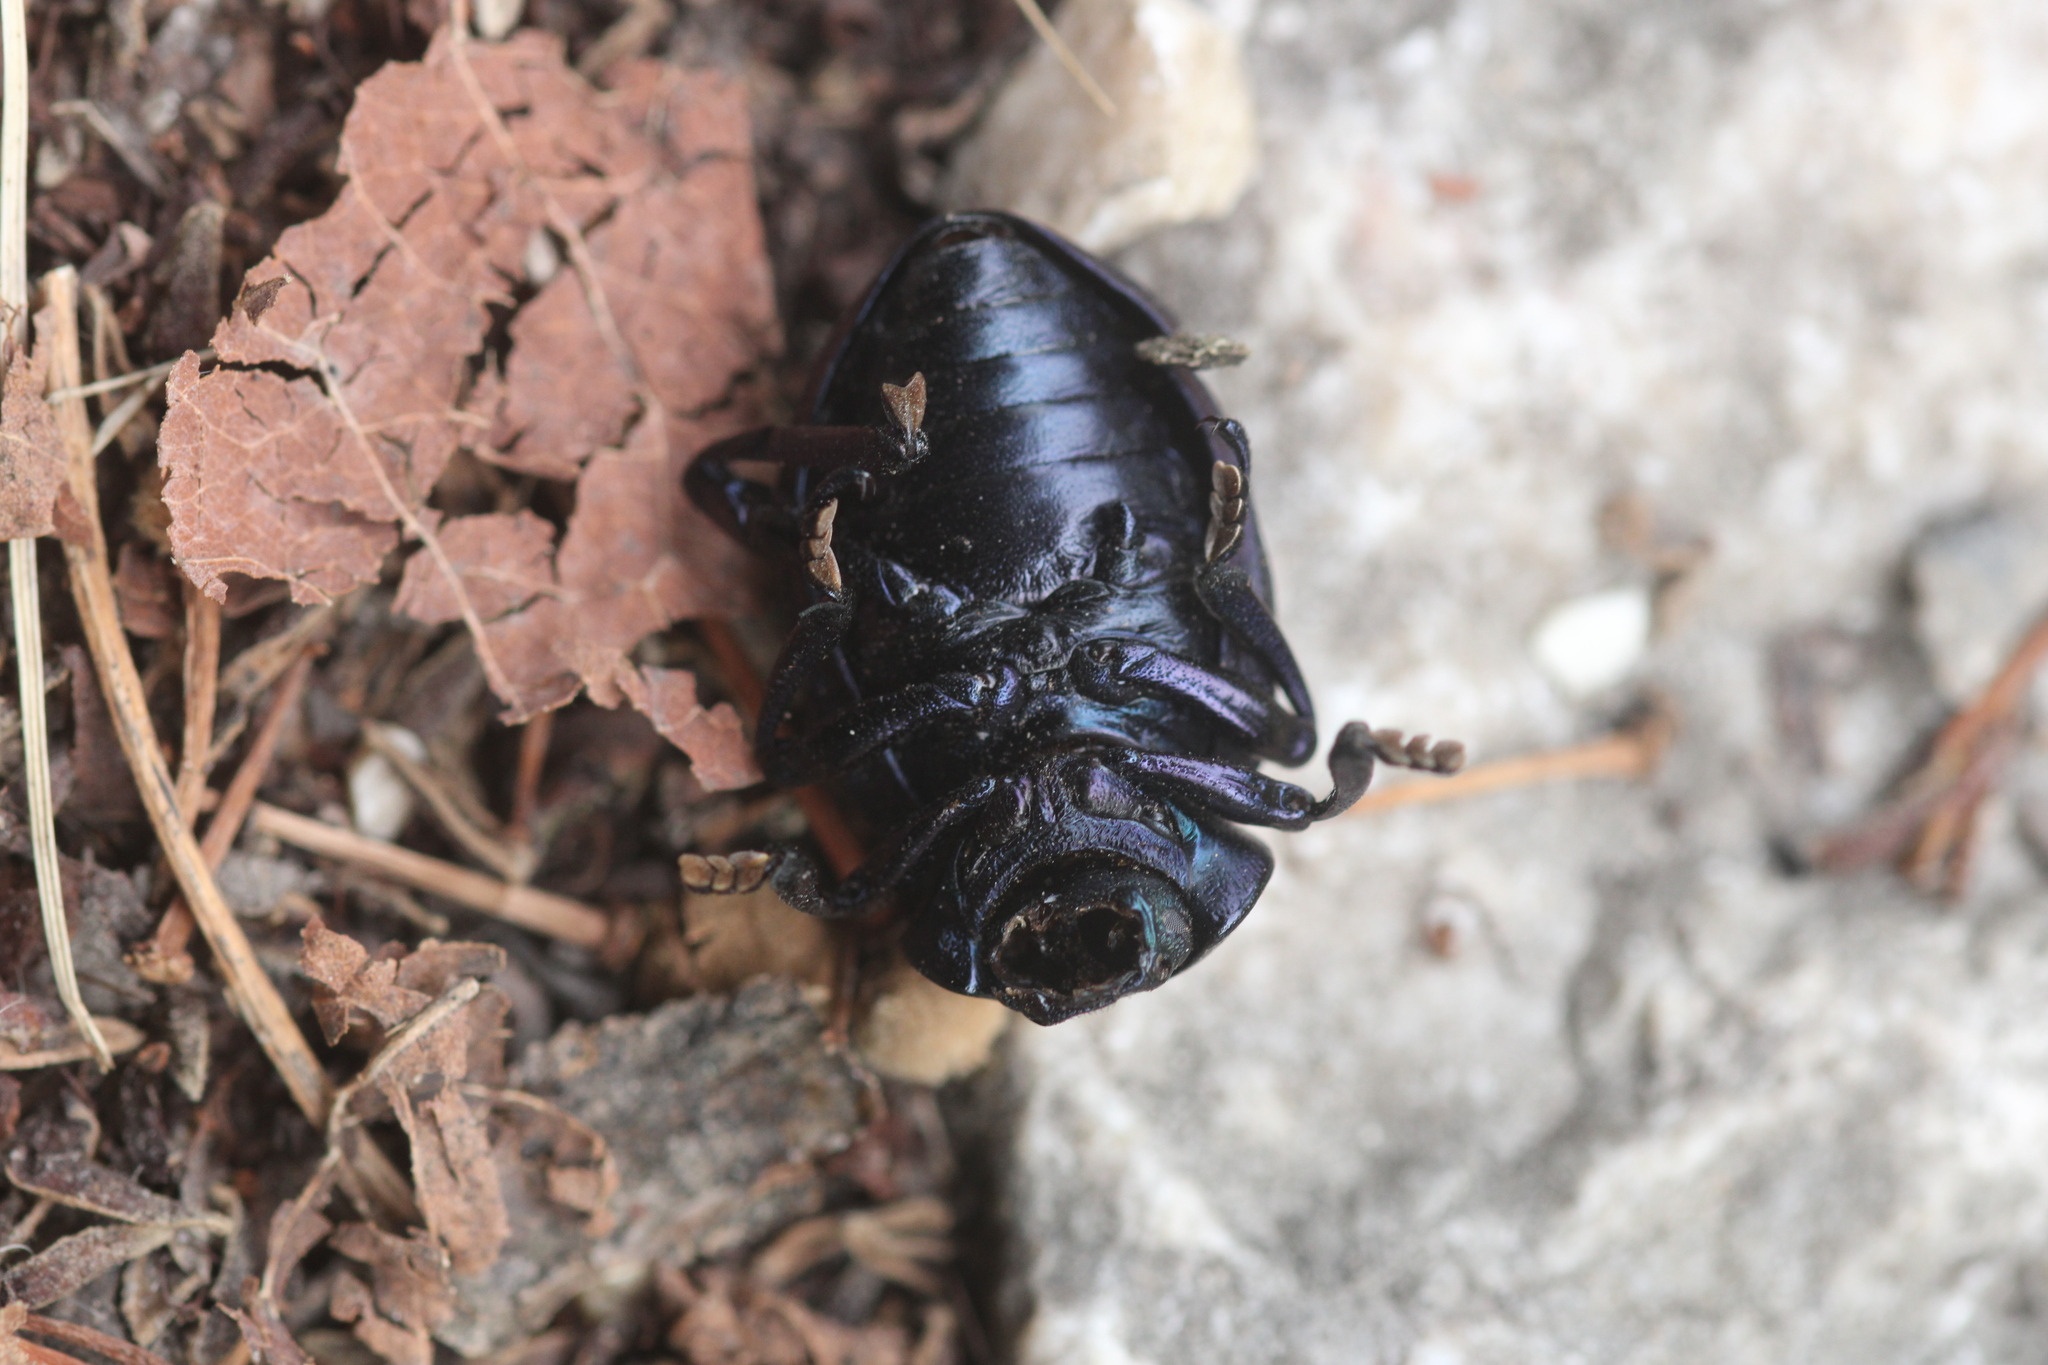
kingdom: Animalia
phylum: Arthropoda
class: Insecta
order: Coleoptera
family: Chrysomelidae
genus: Timarcha
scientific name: Timarcha tenebricosa
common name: Bloody-nosed beetle
